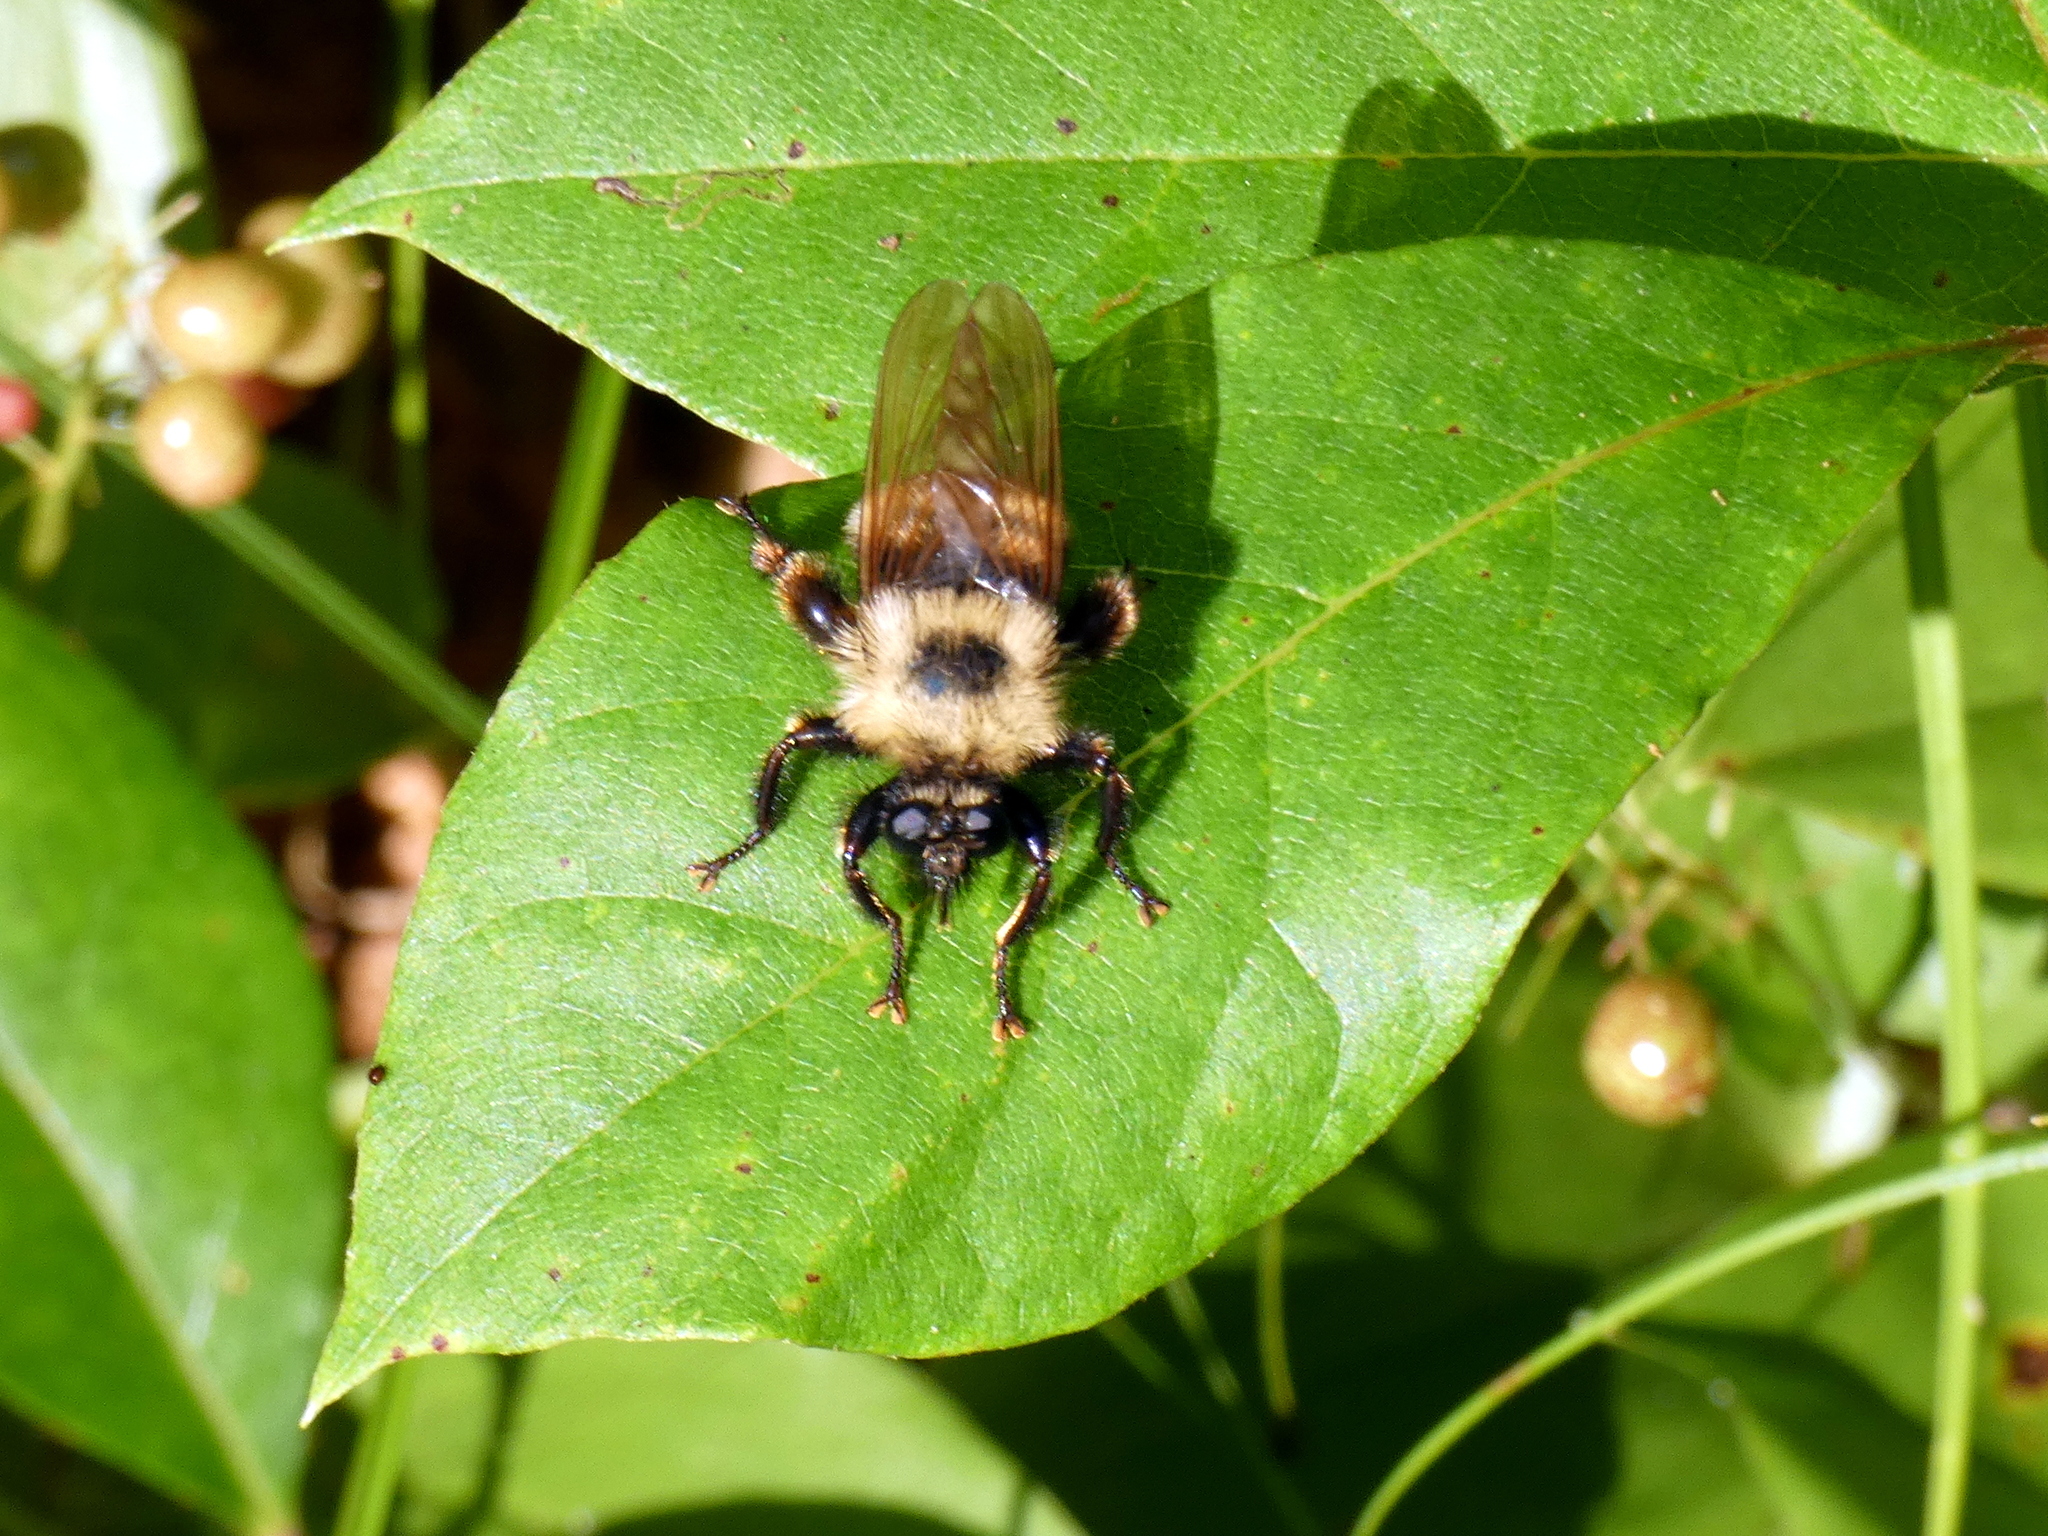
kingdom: Animalia
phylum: Arthropoda
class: Insecta
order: Diptera
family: Asilidae
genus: Laphria
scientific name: Laphria thoracica
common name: Bumble bee mimic robber fly
